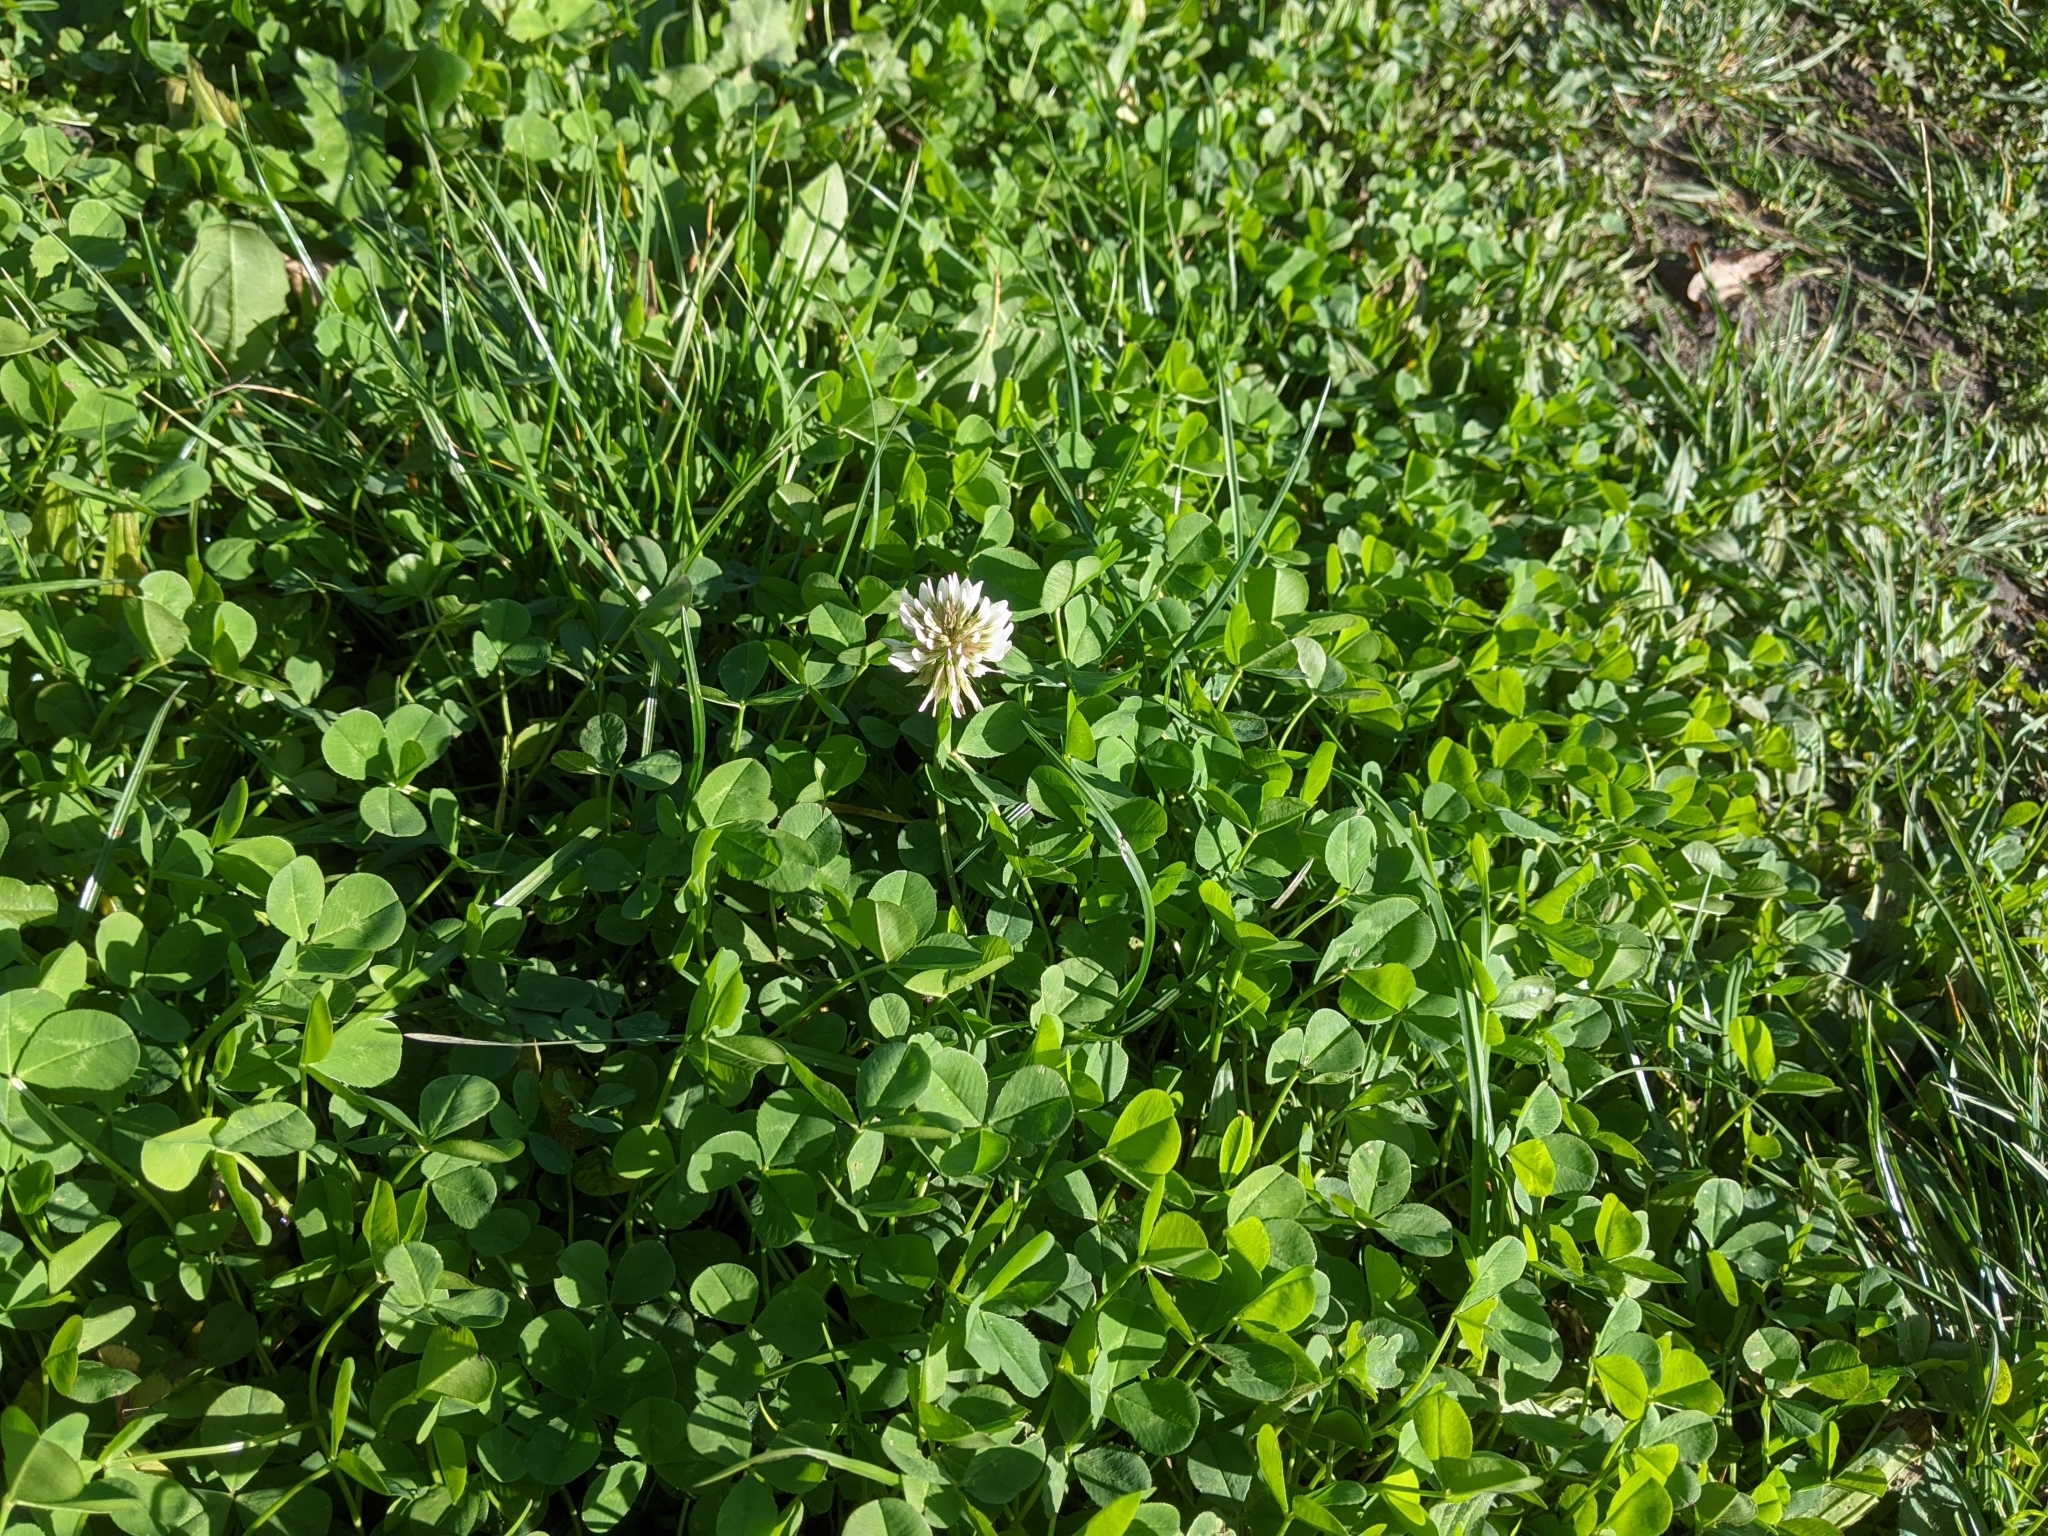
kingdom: Plantae
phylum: Tracheophyta
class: Magnoliopsida
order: Fabales
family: Fabaceae
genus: Trifolium
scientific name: Trifolium repens
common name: White clover
